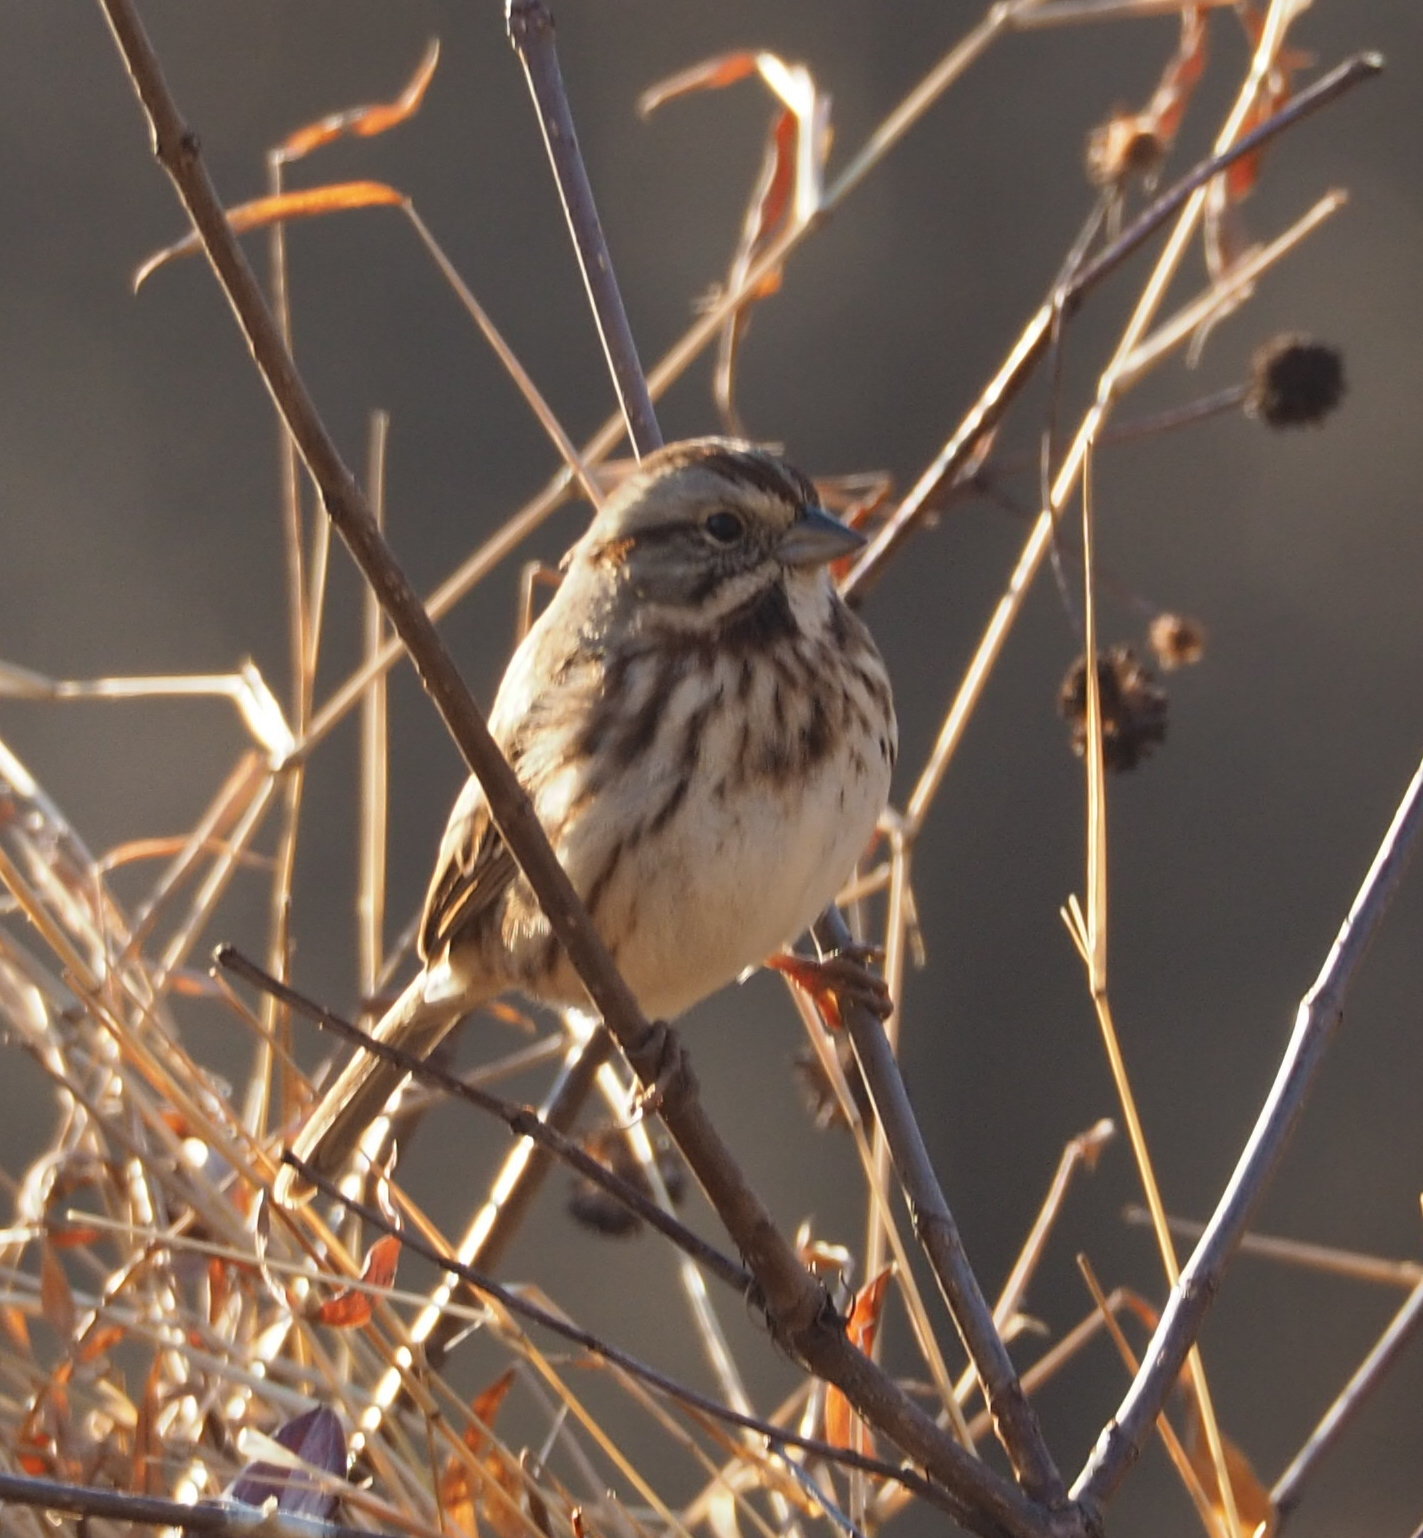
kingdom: Animalia
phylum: Chordata
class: Aves
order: Passeriformes
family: Passerellidae
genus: Melospiza
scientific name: Melospiza melodia
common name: Song sparrow
